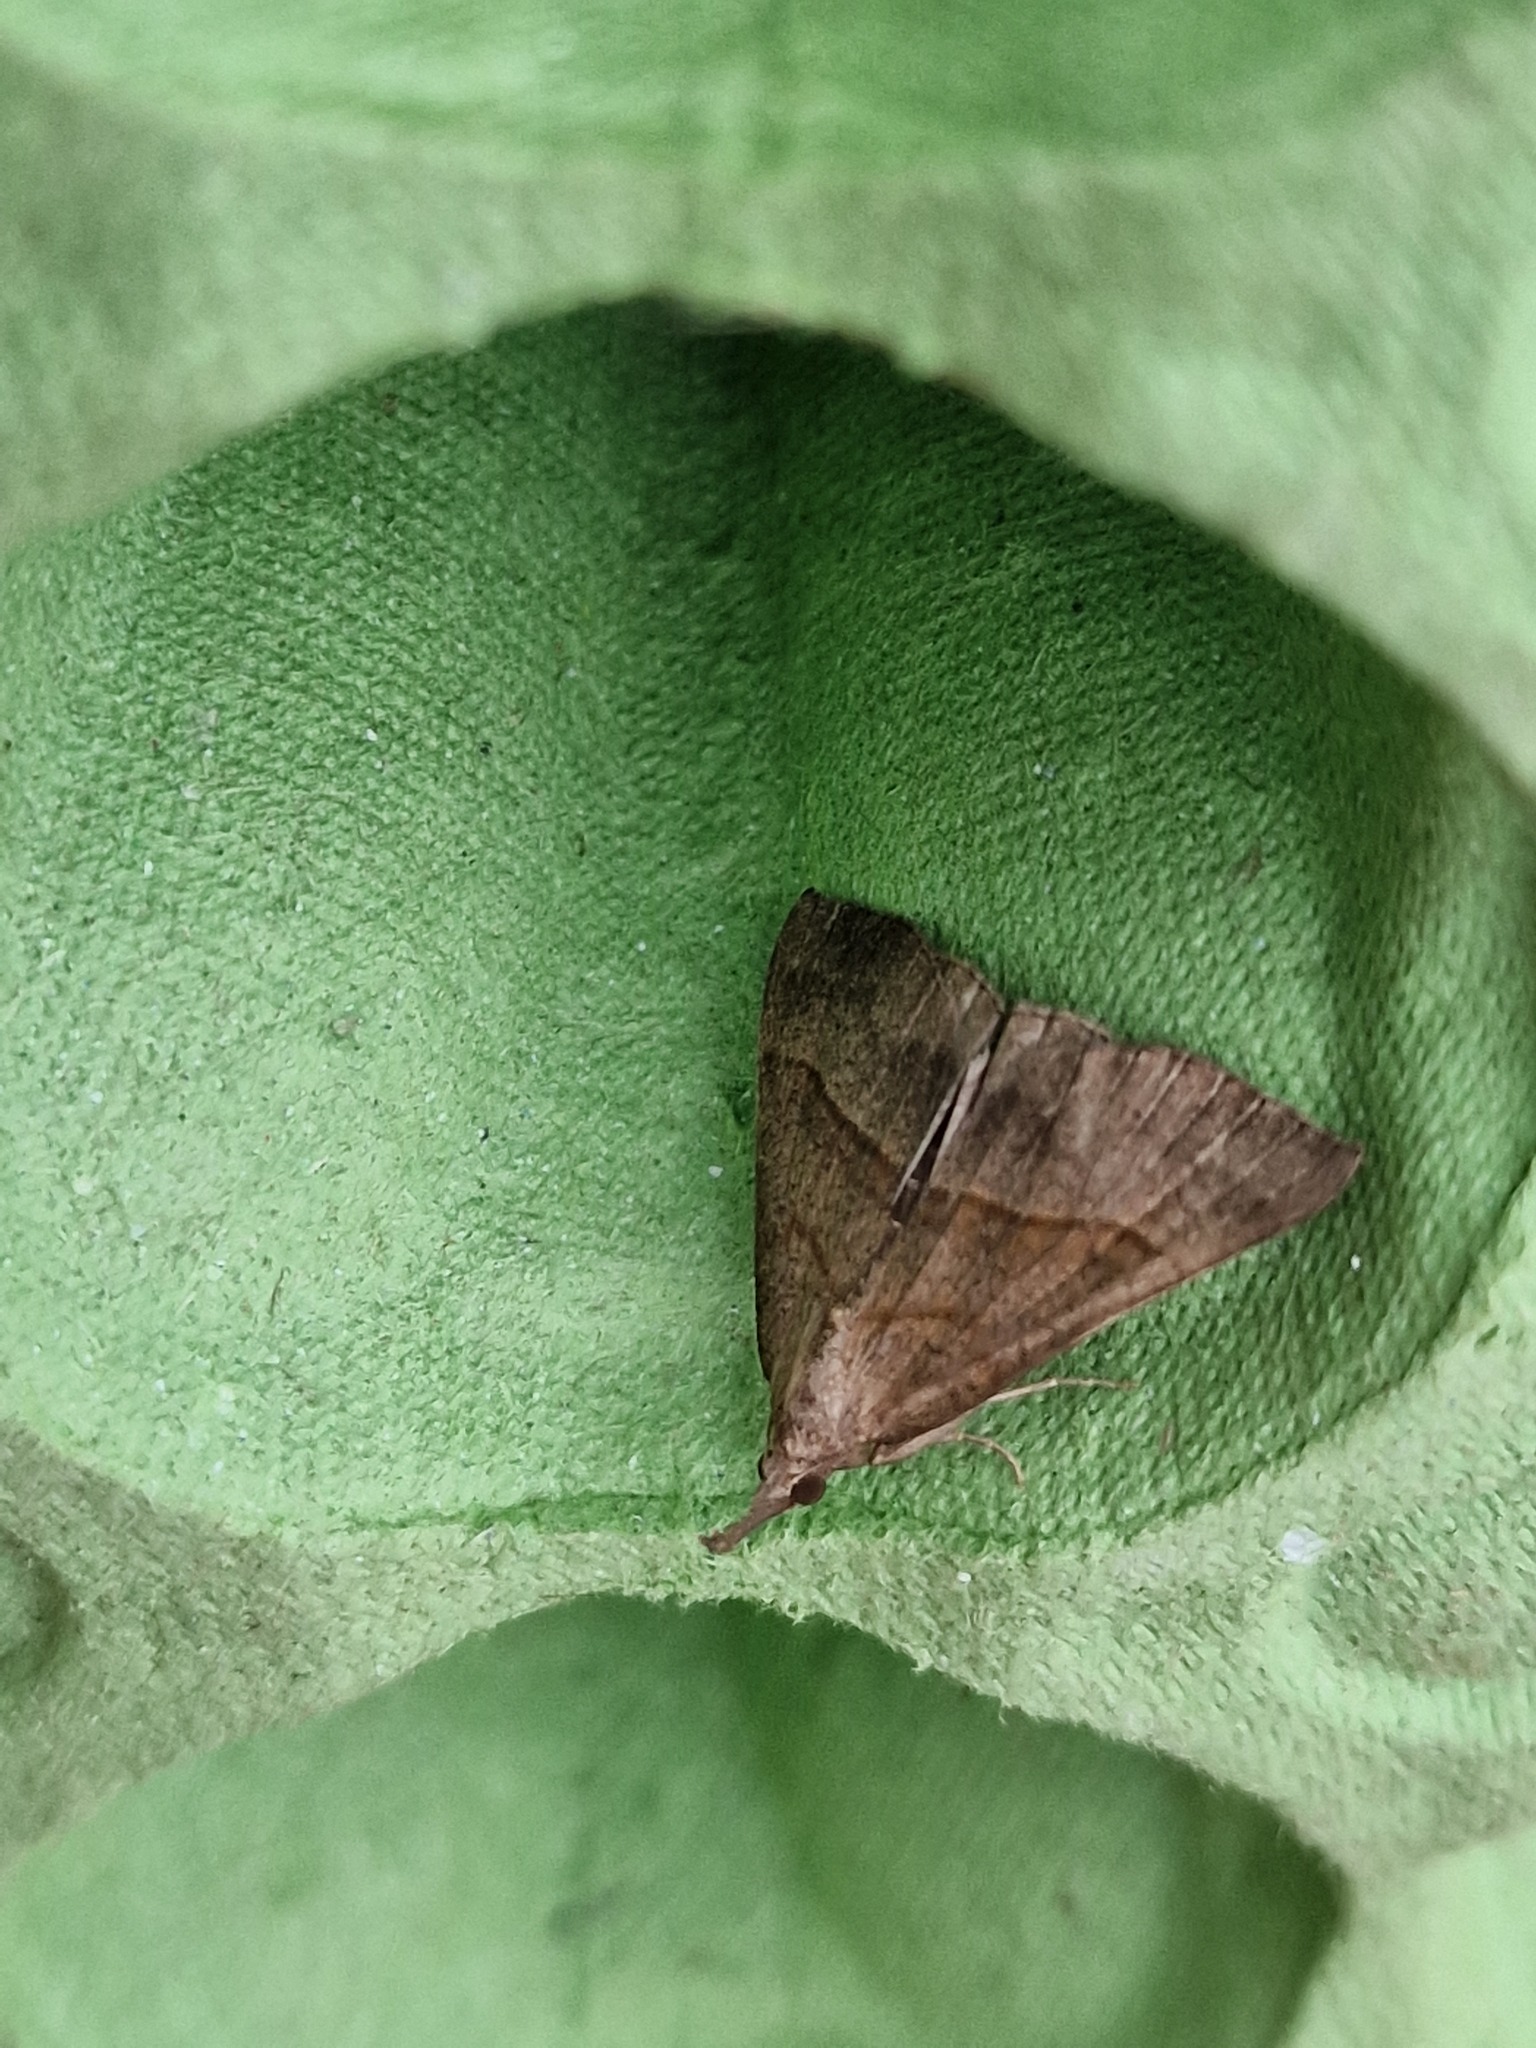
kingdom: Animalia
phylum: Arthropoda
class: Insecta
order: Lepidoptera
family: Erebidae
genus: Hypena
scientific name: Hypena proboscidalis
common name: Snout
